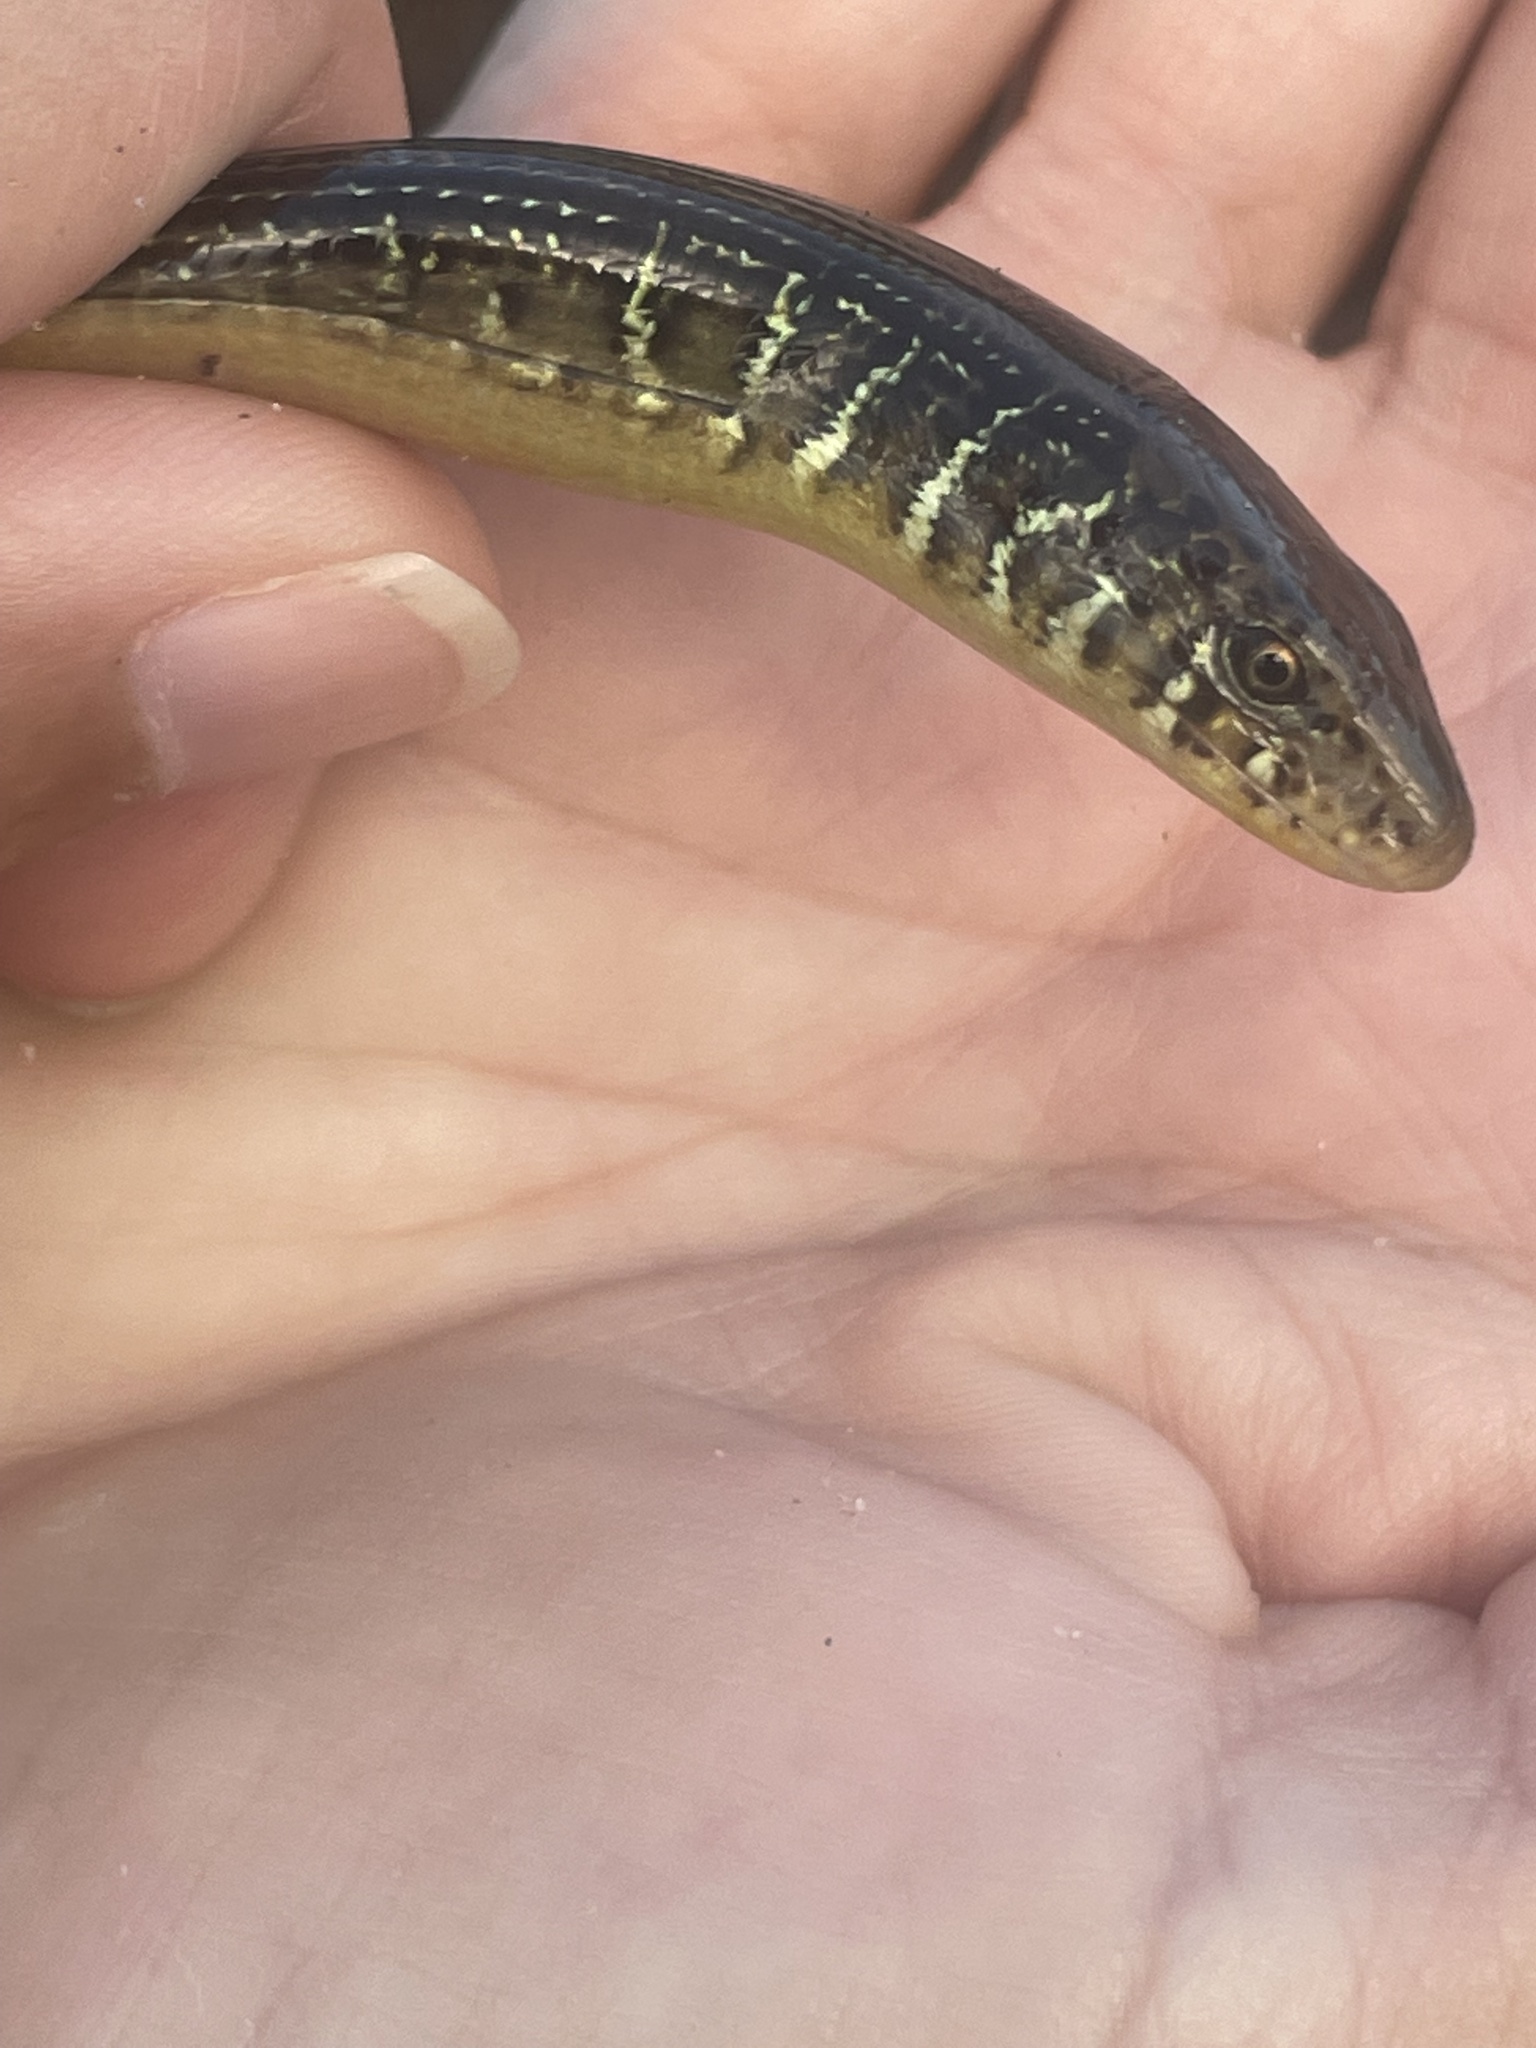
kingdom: Animalia
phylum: Chordata
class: Squamata
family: Anguidae
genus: Ophisaurus
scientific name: Ophisaurus ventralis
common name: Eastern glass lizard
